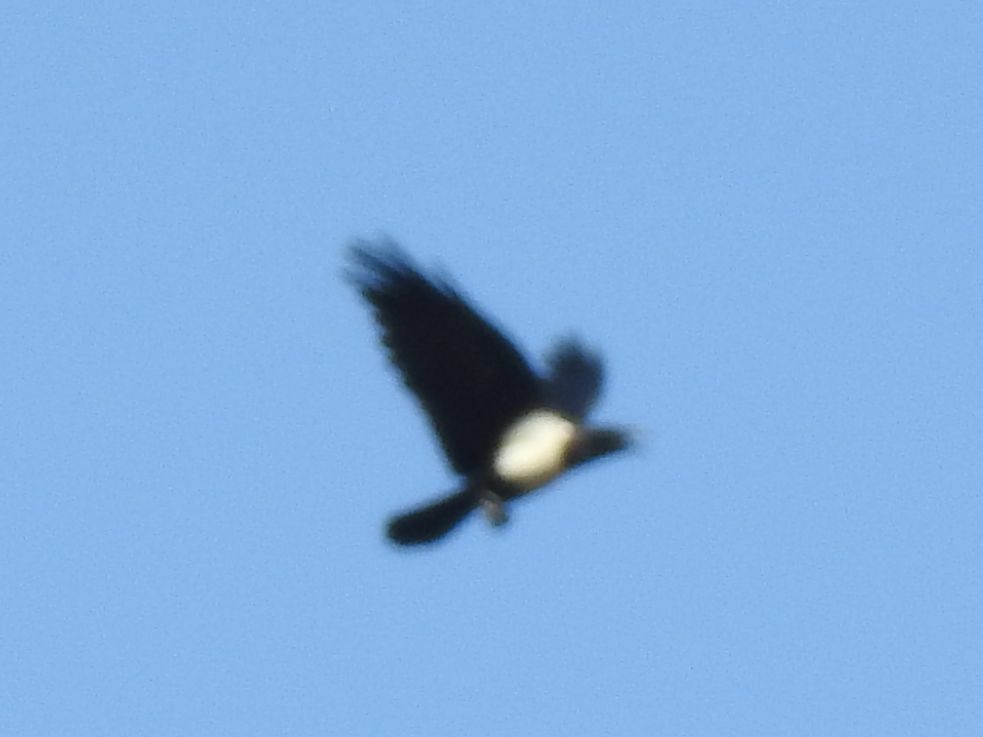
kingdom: Animalia
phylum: Chordata
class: Aves
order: Passeriformes
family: Corvidae
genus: Corvus
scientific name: Corvus albus
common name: Pied crow
